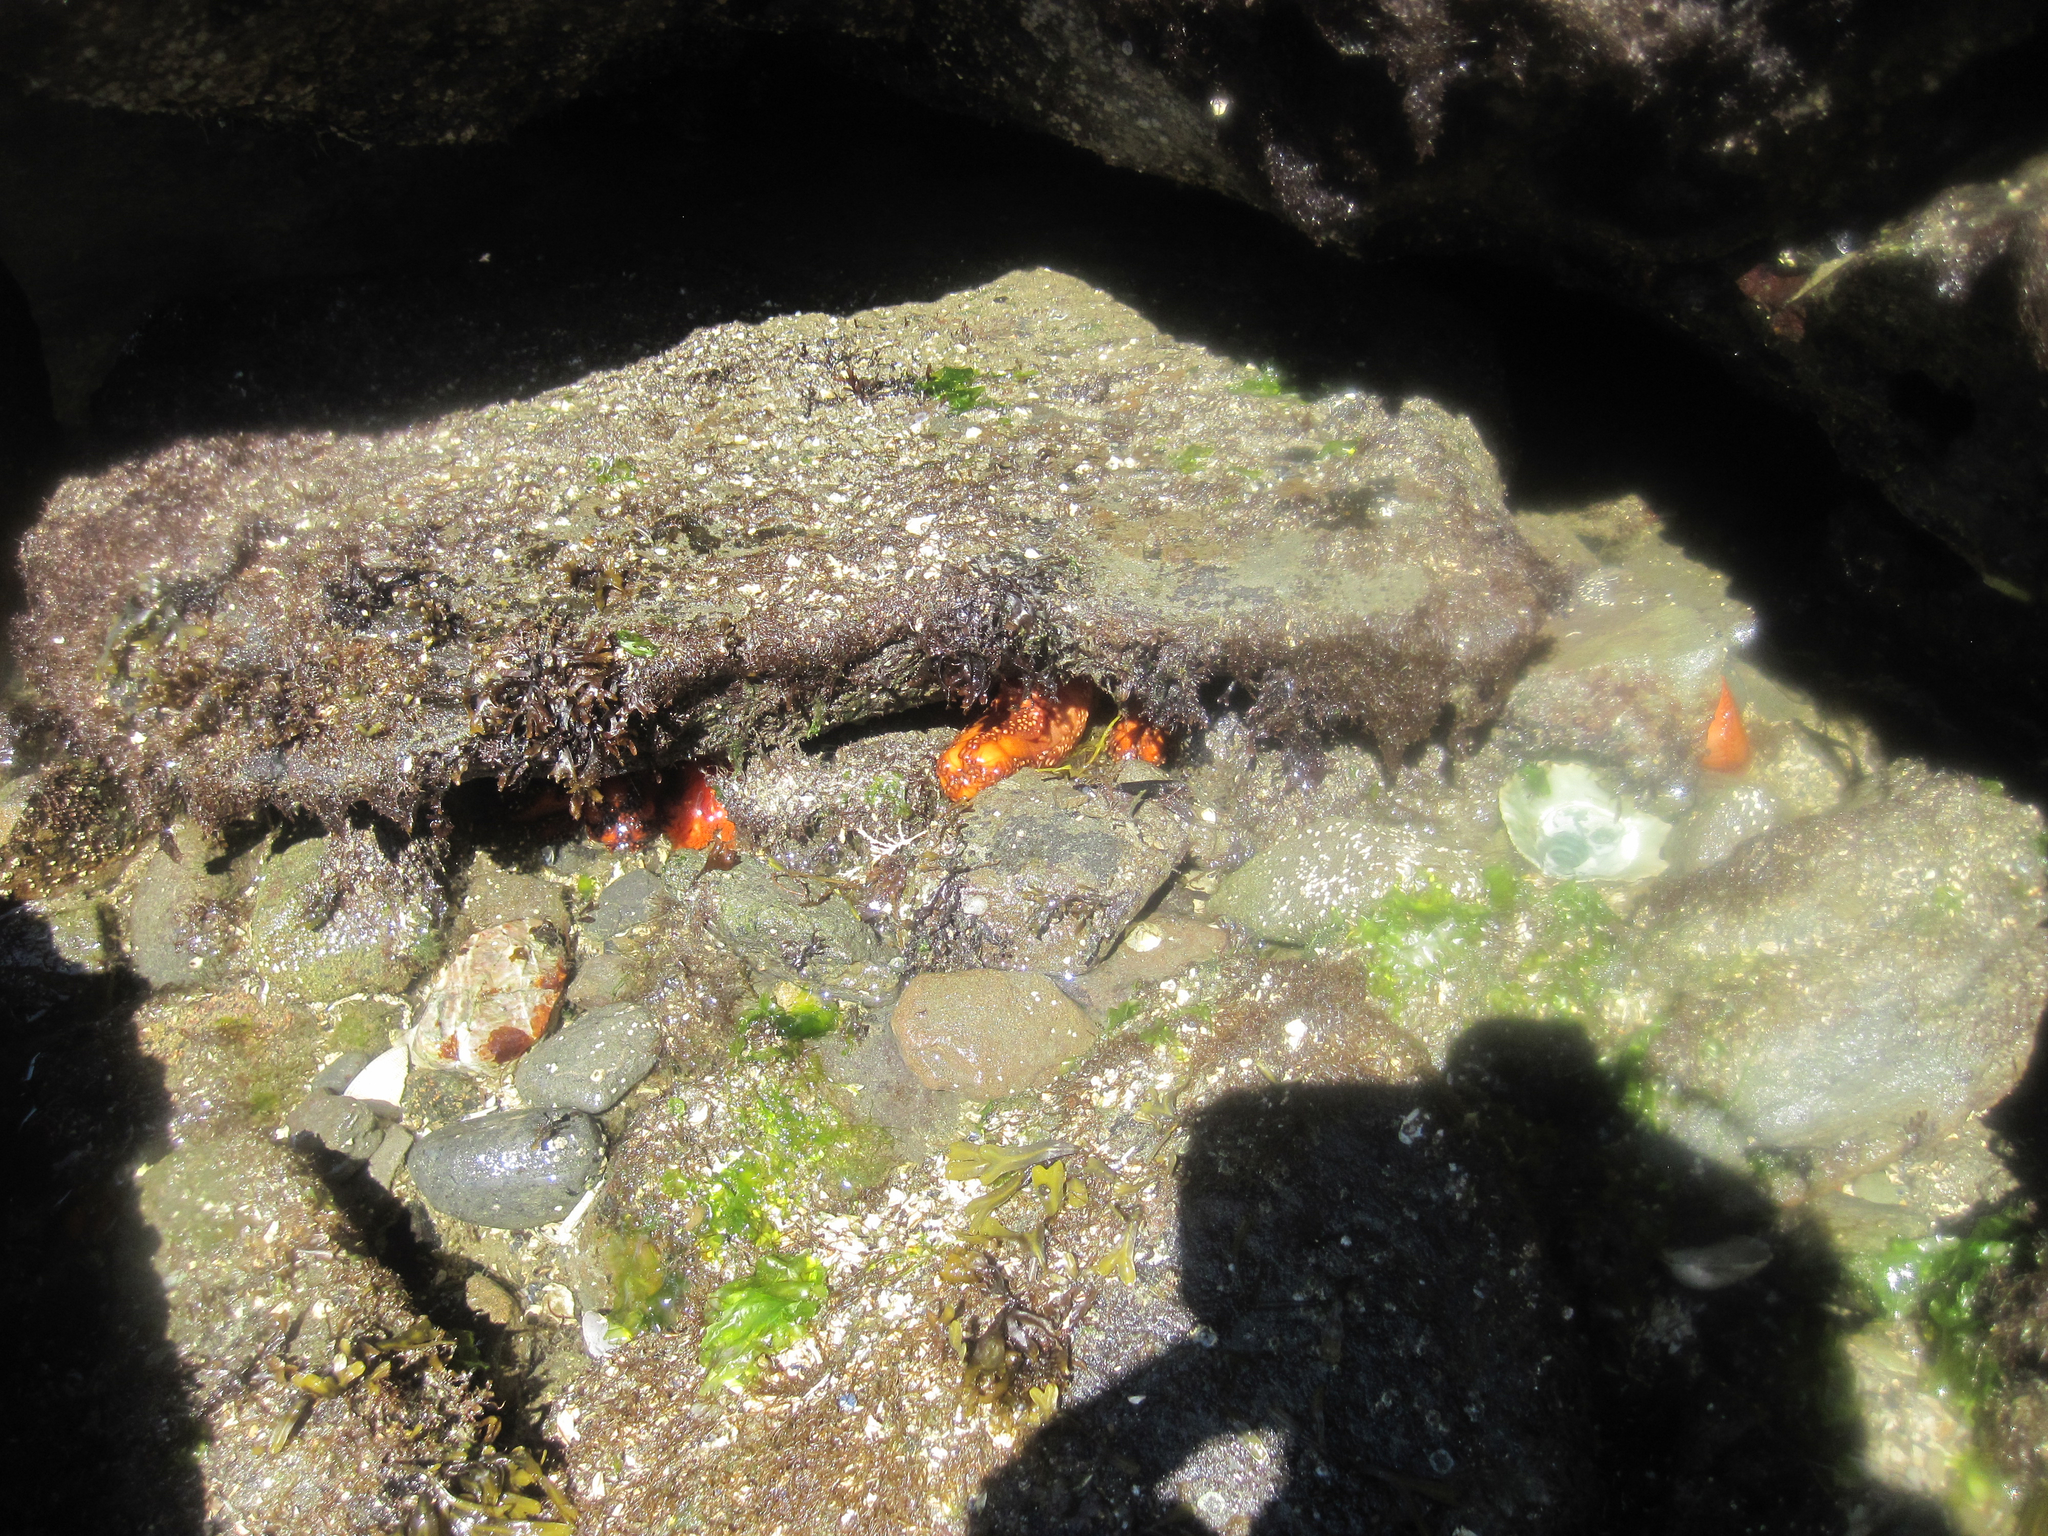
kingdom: Animalia
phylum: Echinodermata
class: Holothuroidea
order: Dendrochirotida
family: Cucumariidae
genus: Cucumaria
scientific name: Cucumaria miniata
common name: Orange sea cucumber
